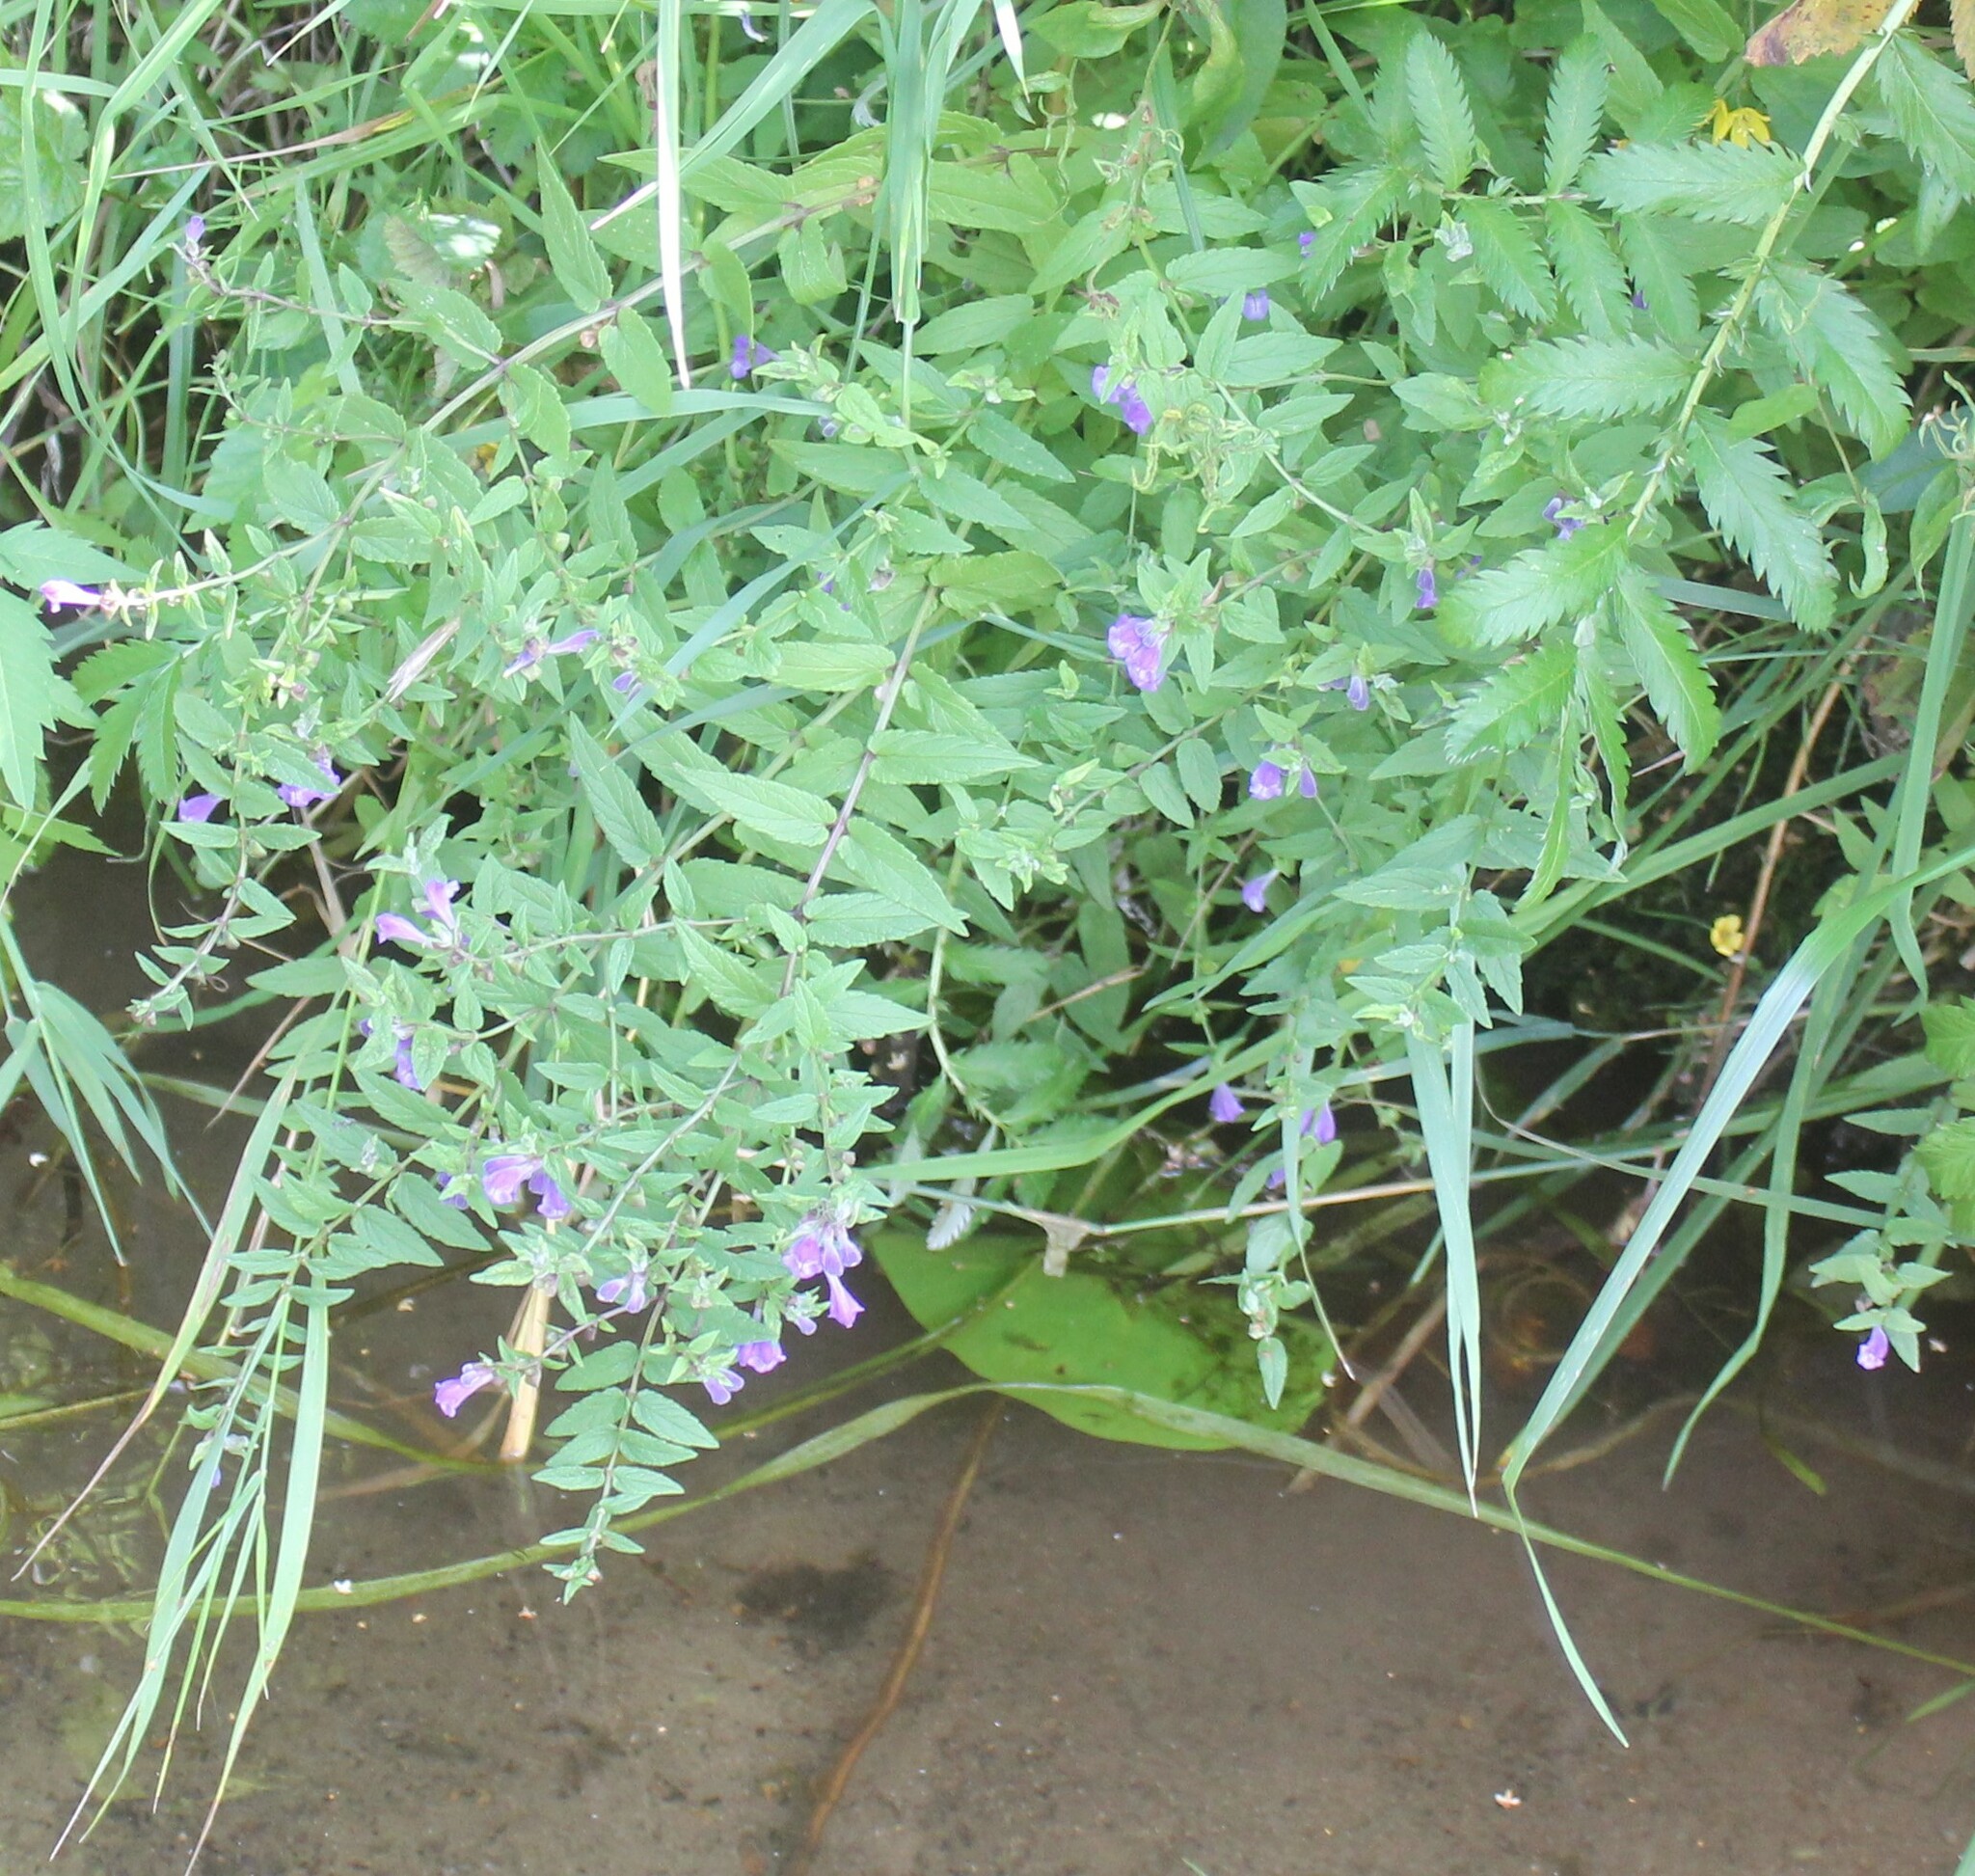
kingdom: Plantae
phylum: Tracheophyta
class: Magnoliopsida
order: Lamiales
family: Lamiaceae
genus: Scutellaria
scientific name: Scutellaria galericulata
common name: Skullcap
